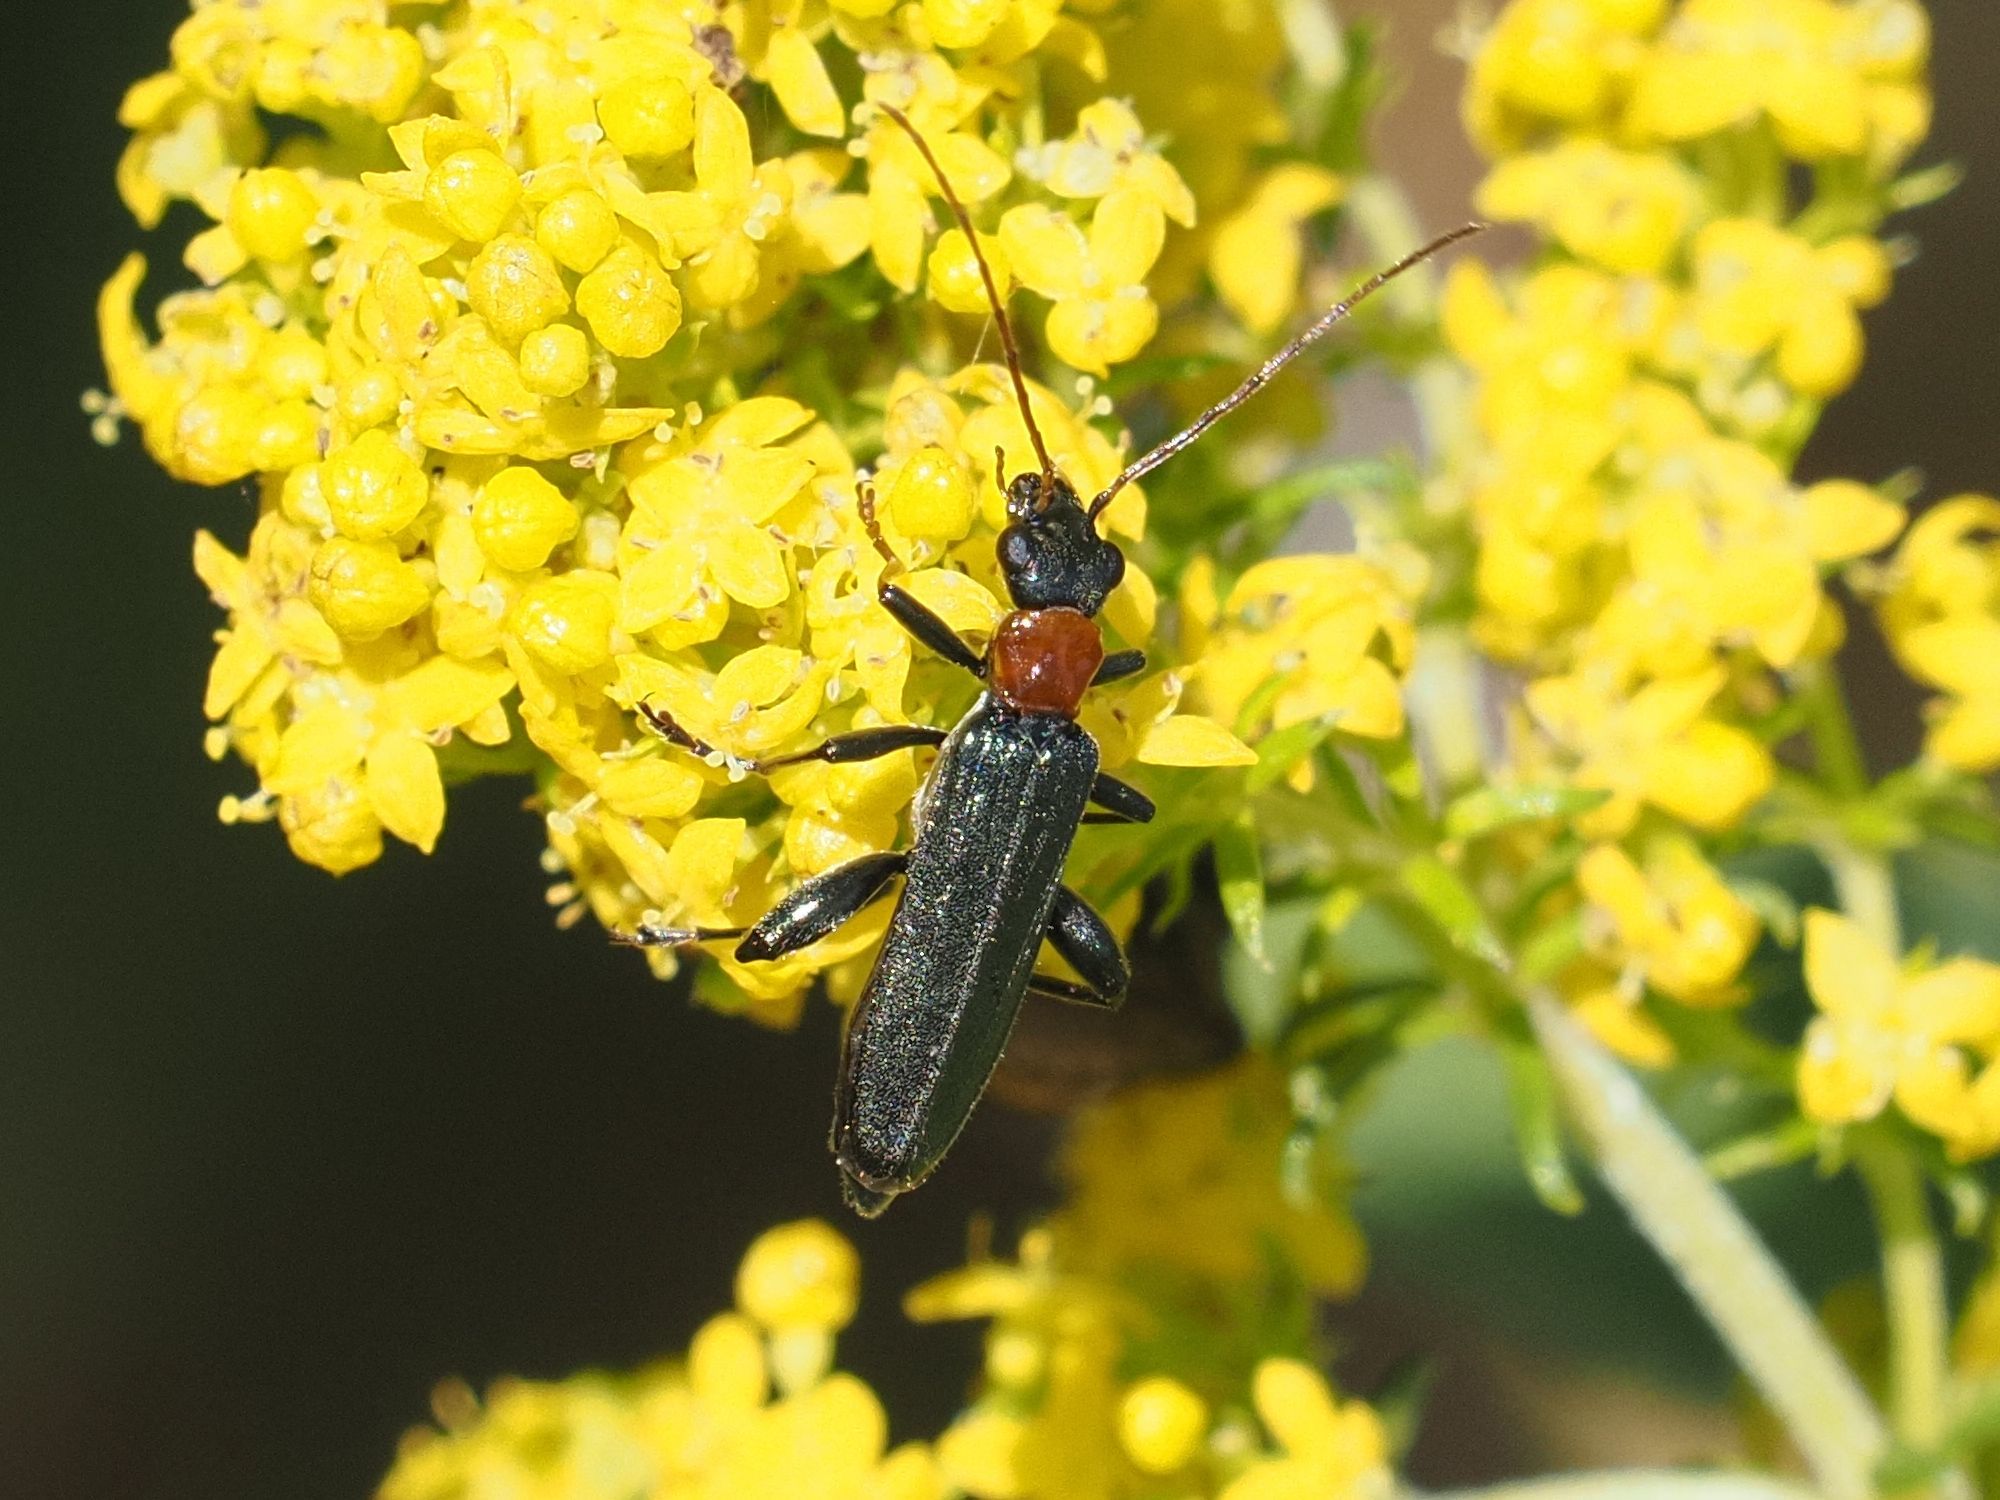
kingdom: Animalia
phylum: Arthropoda
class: Insecta
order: Coleoptera
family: Oedemeridae
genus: Oedemera
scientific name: Oedemera croceicollis
